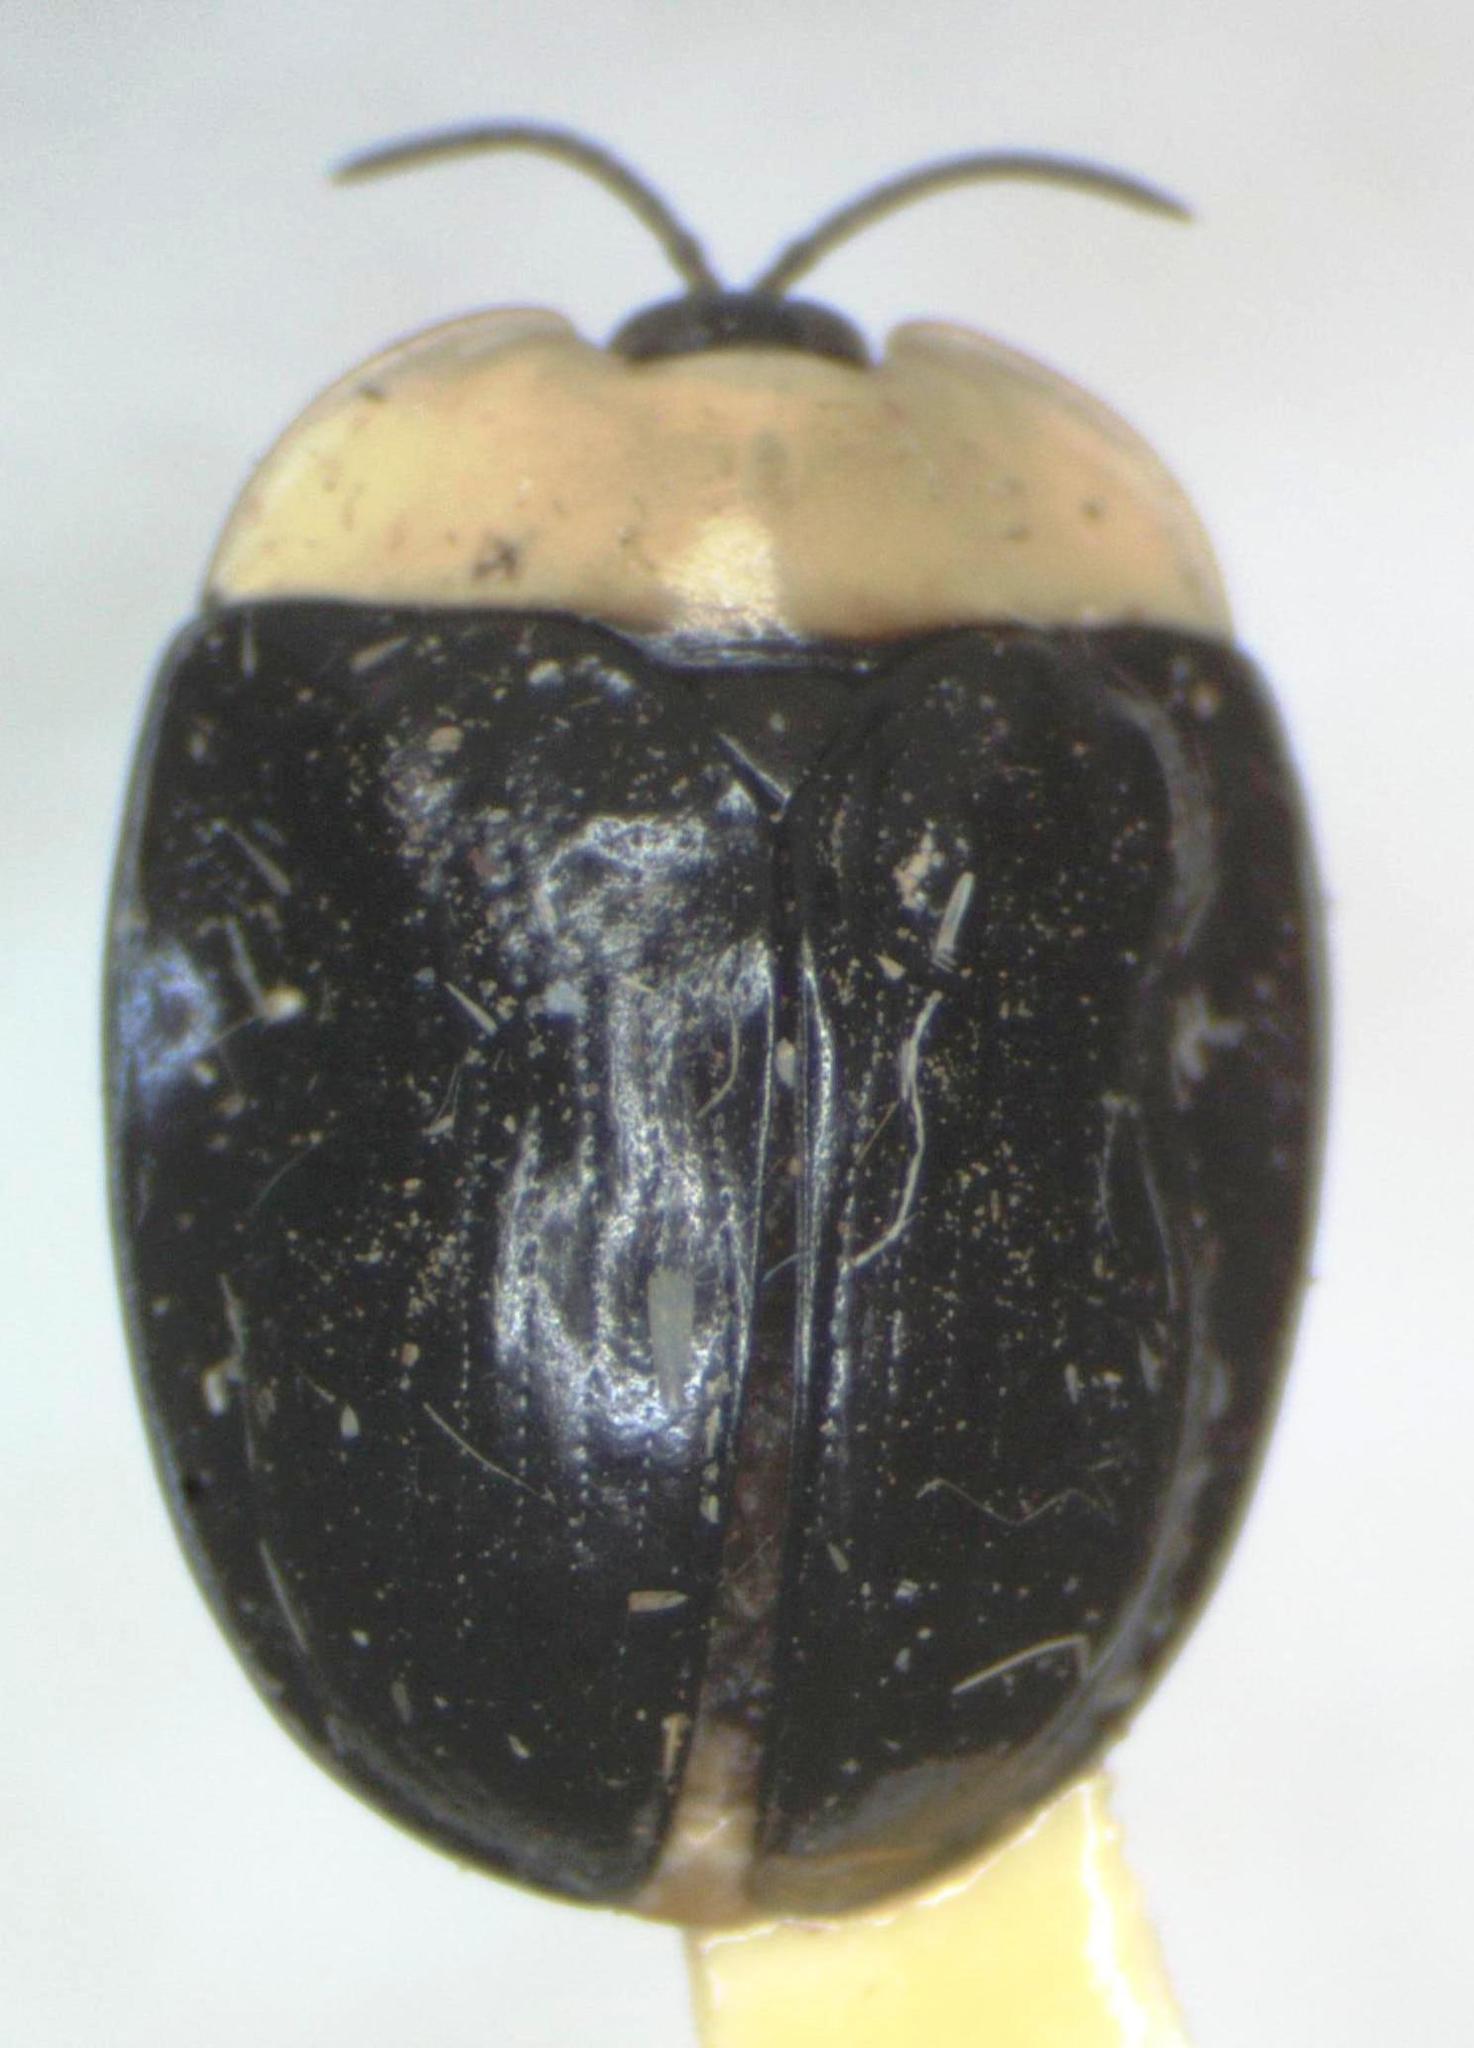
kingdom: Animalia
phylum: Arthropoda
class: Insecta
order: Coleoptera
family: Chrysomelidae
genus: Imatidium
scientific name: Imatidium thoracicum
